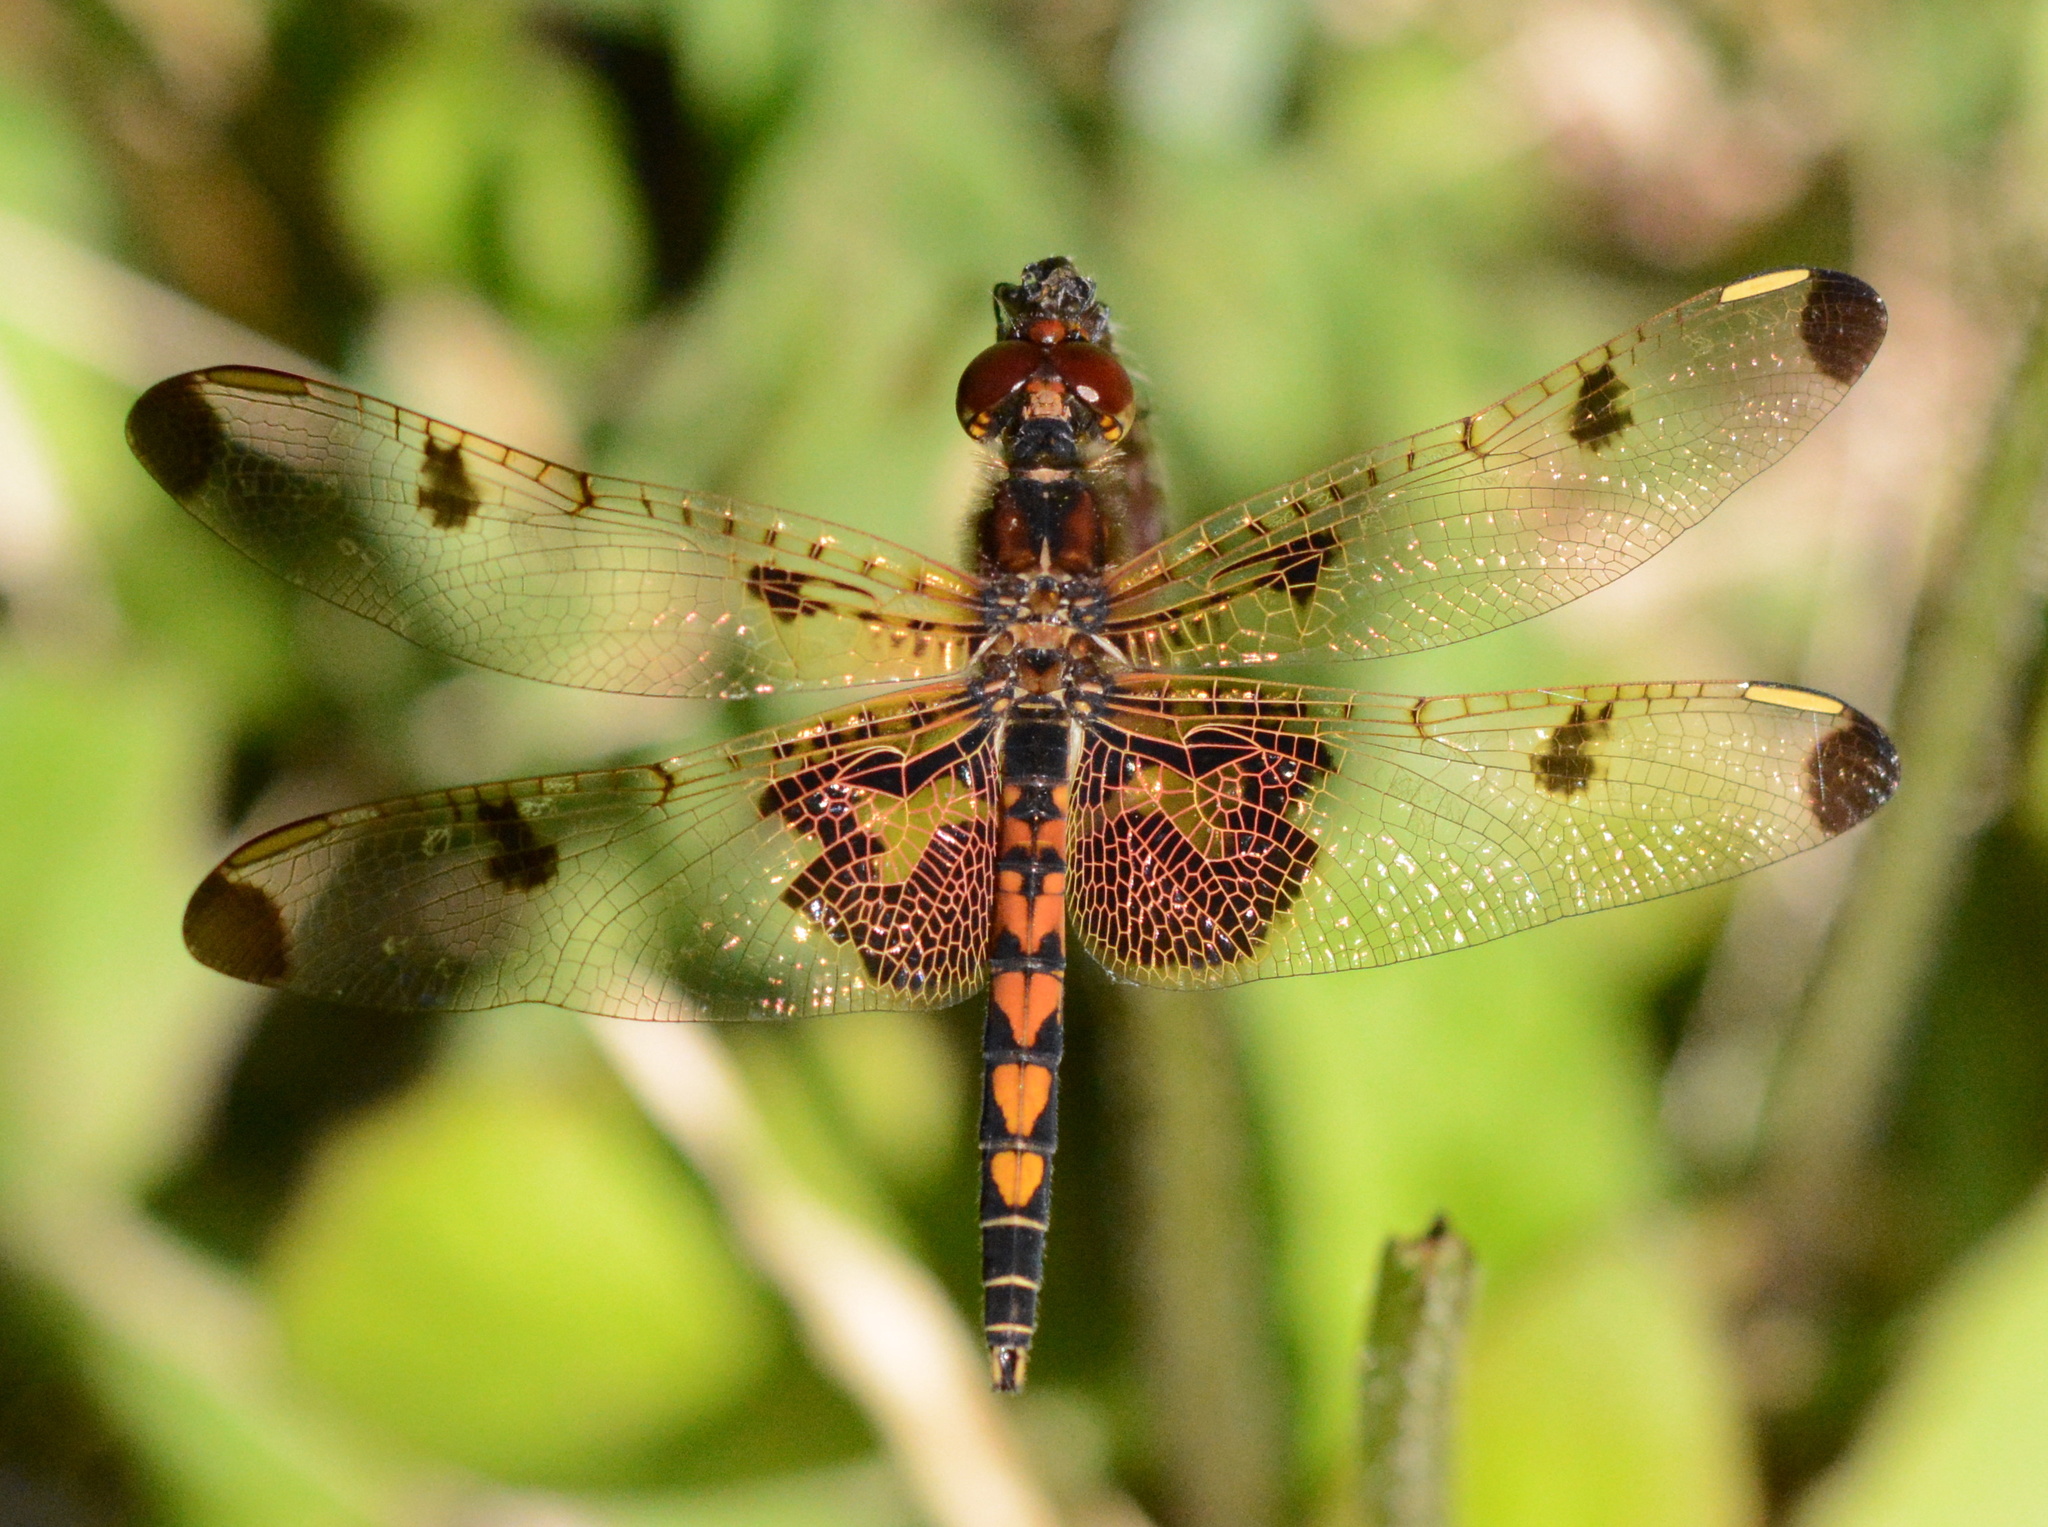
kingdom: Animalia
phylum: Arthropoda
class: Insecta
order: Odonata
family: Libellulidae
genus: Celithemis
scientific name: Celithemis elisa
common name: Calico pennant
